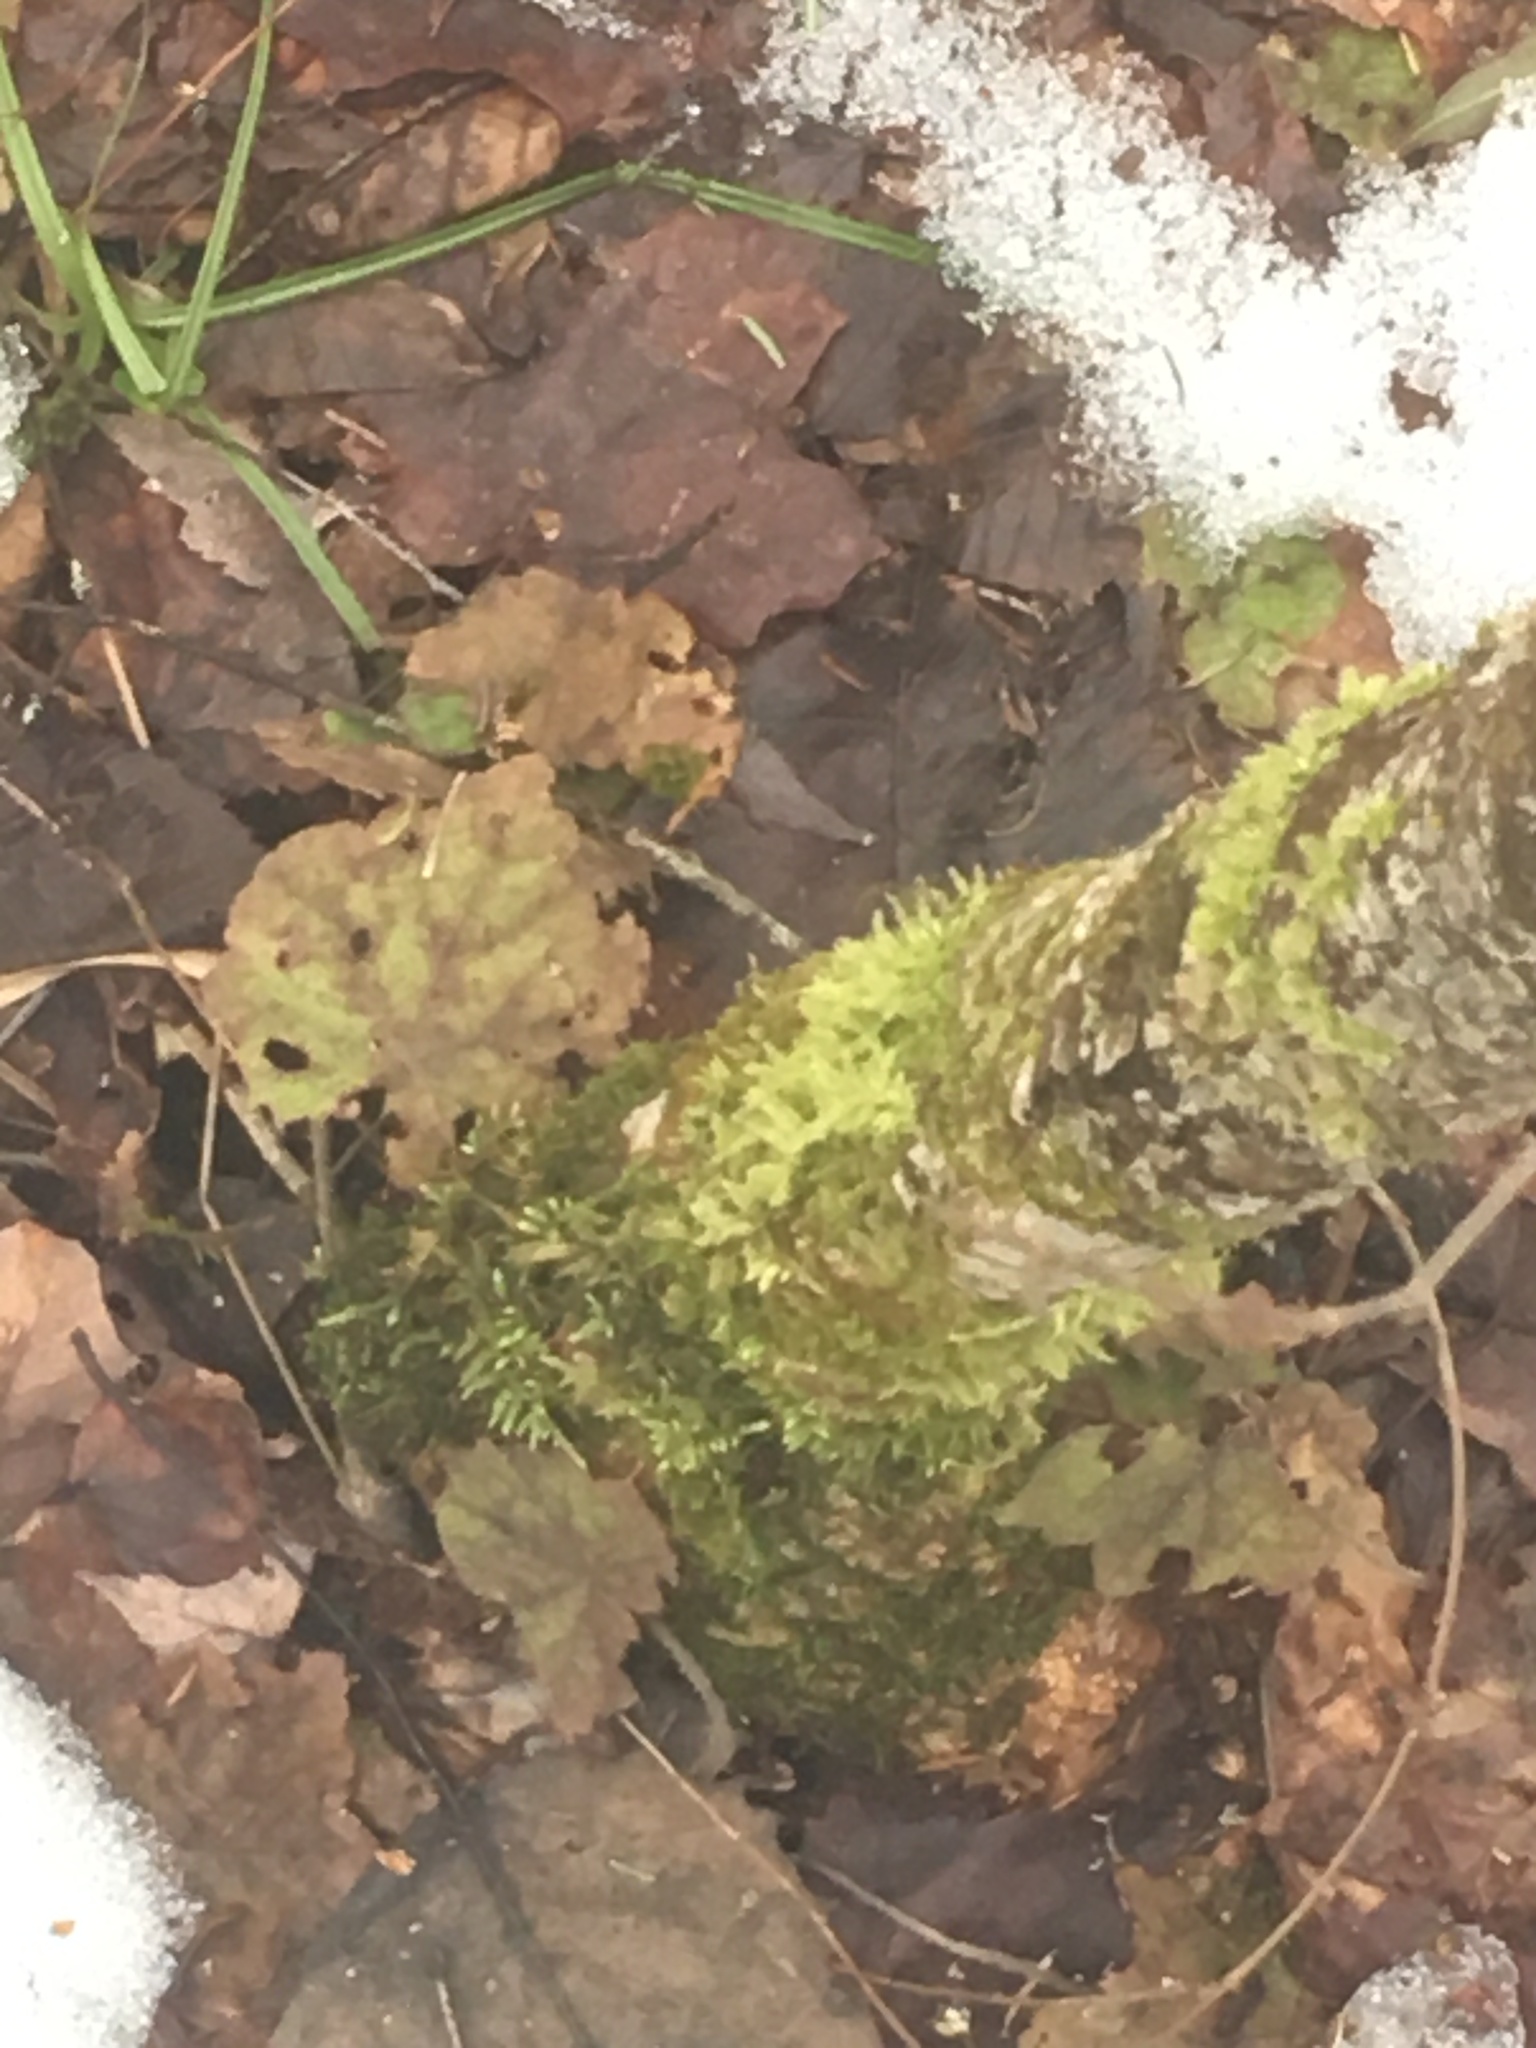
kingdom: Plantae
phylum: Tracheophyta
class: Magnoliopsida
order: Saxifragales
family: Saxifragaceae
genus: Tiarella
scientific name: Tiarella stolonifera
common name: Stoloniferous foamflower
